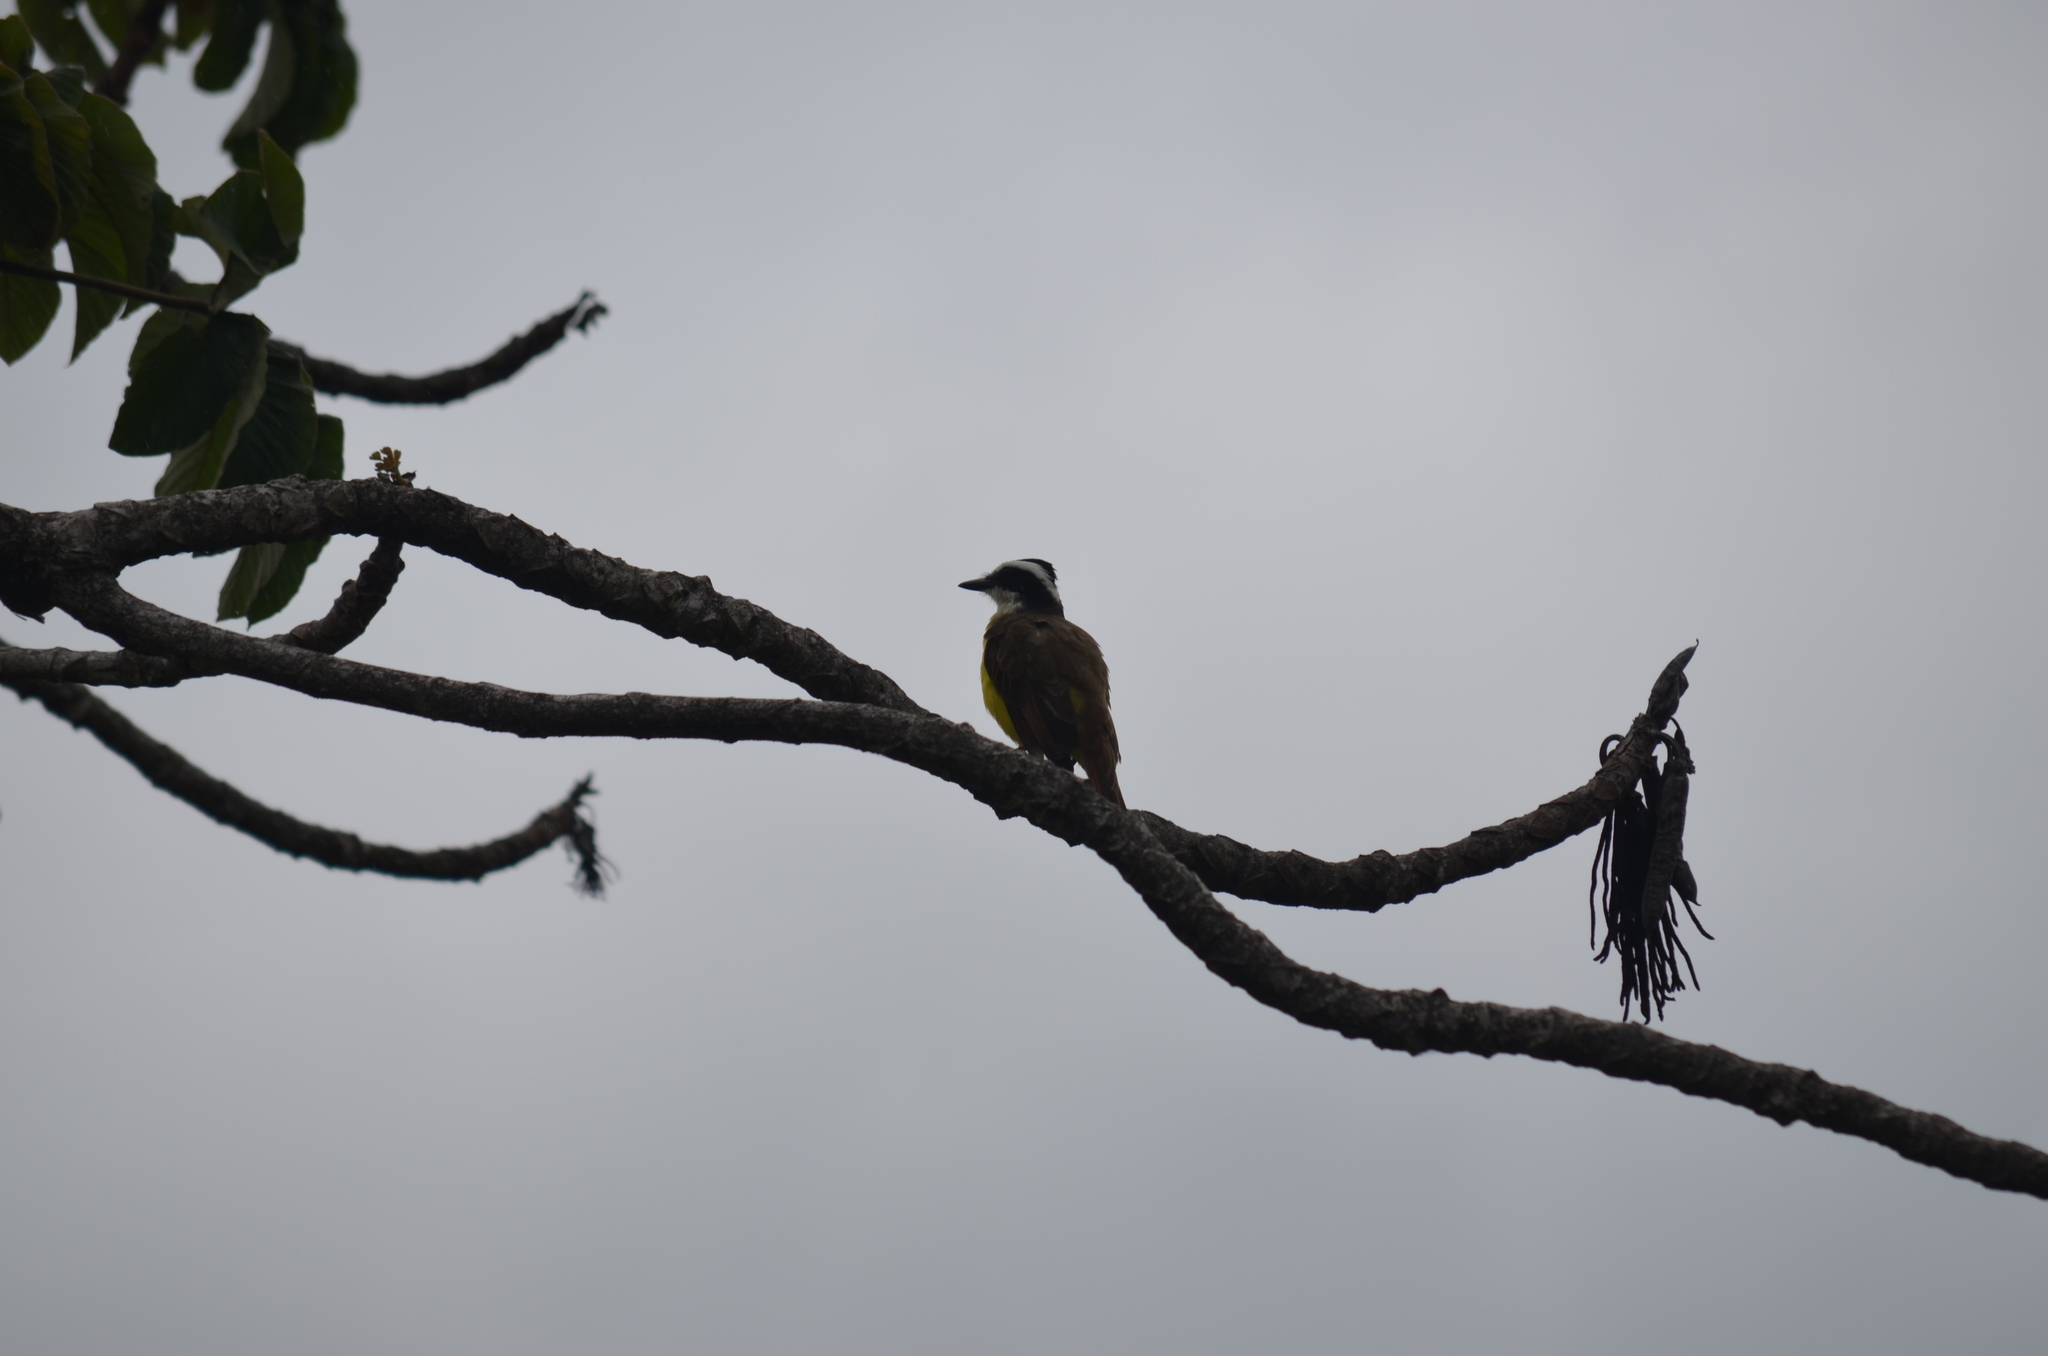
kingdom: Animalia
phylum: Chordata
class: Aves
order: Passeriformes
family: Tyrannidae
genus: Pitangus
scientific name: Pitangus sulphuratus
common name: Great kiskadee
